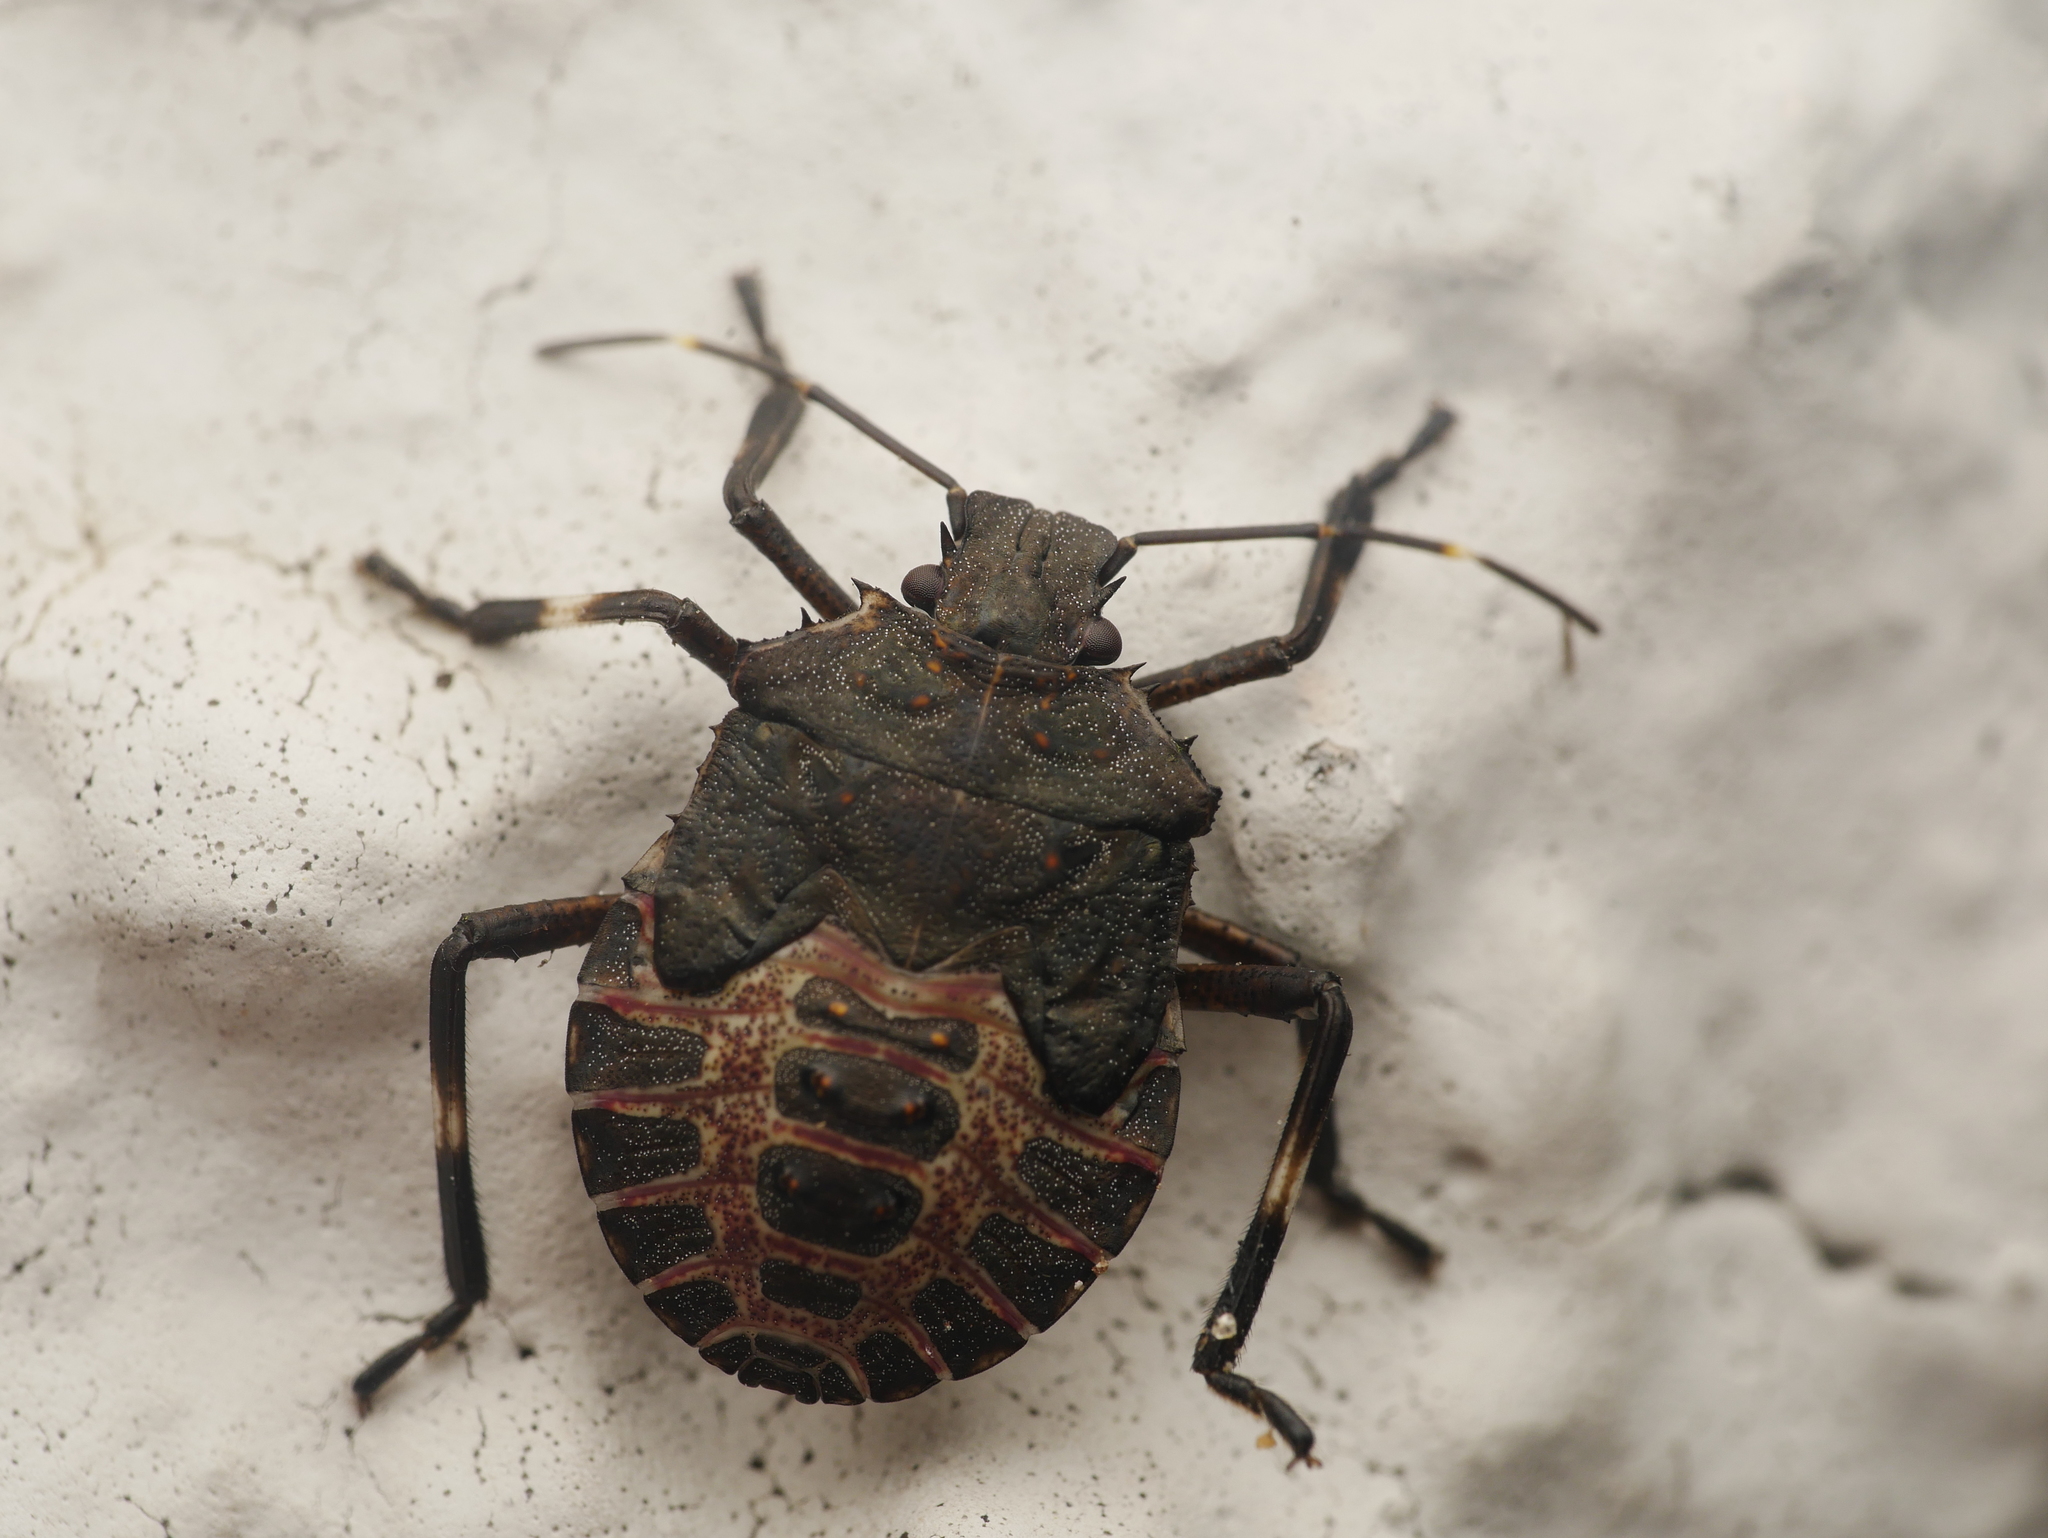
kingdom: Animalia
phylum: Arthropoda
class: Insecta
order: Hemiptera
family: Pentatomidae
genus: Halyomorpha
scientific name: Halyomorpha halys
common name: Brown marmorated stink bug
